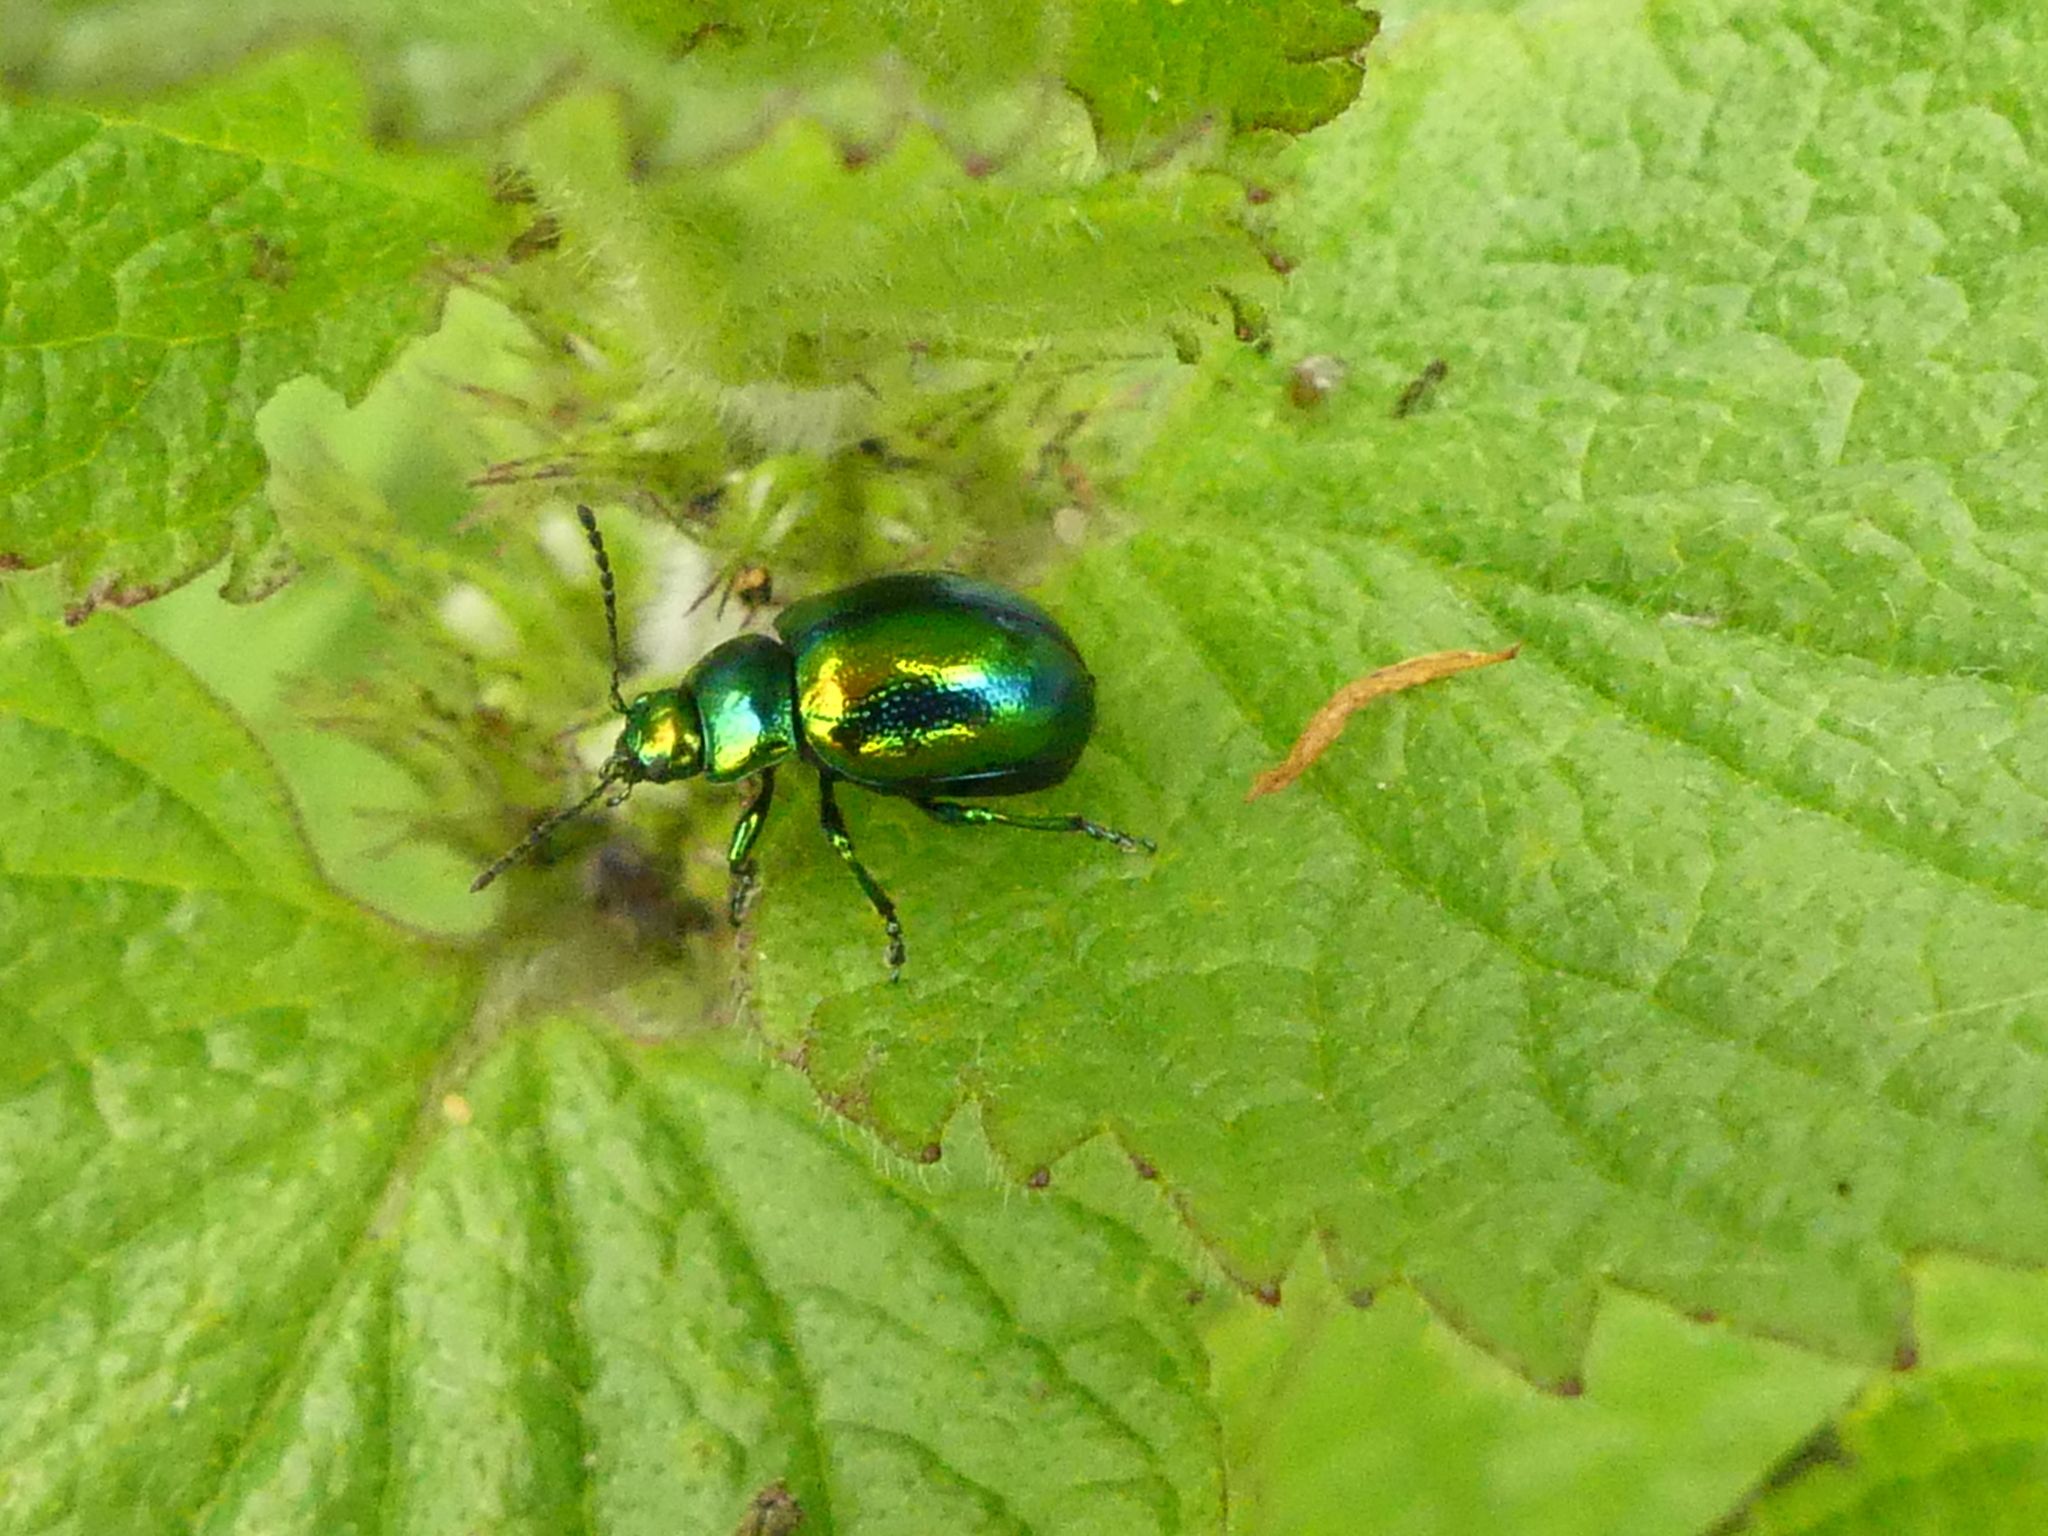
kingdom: Animalia
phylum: Arthropoda
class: Insecta
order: Coleoptera
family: Chrysomelidae
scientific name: Chrysomelidae
